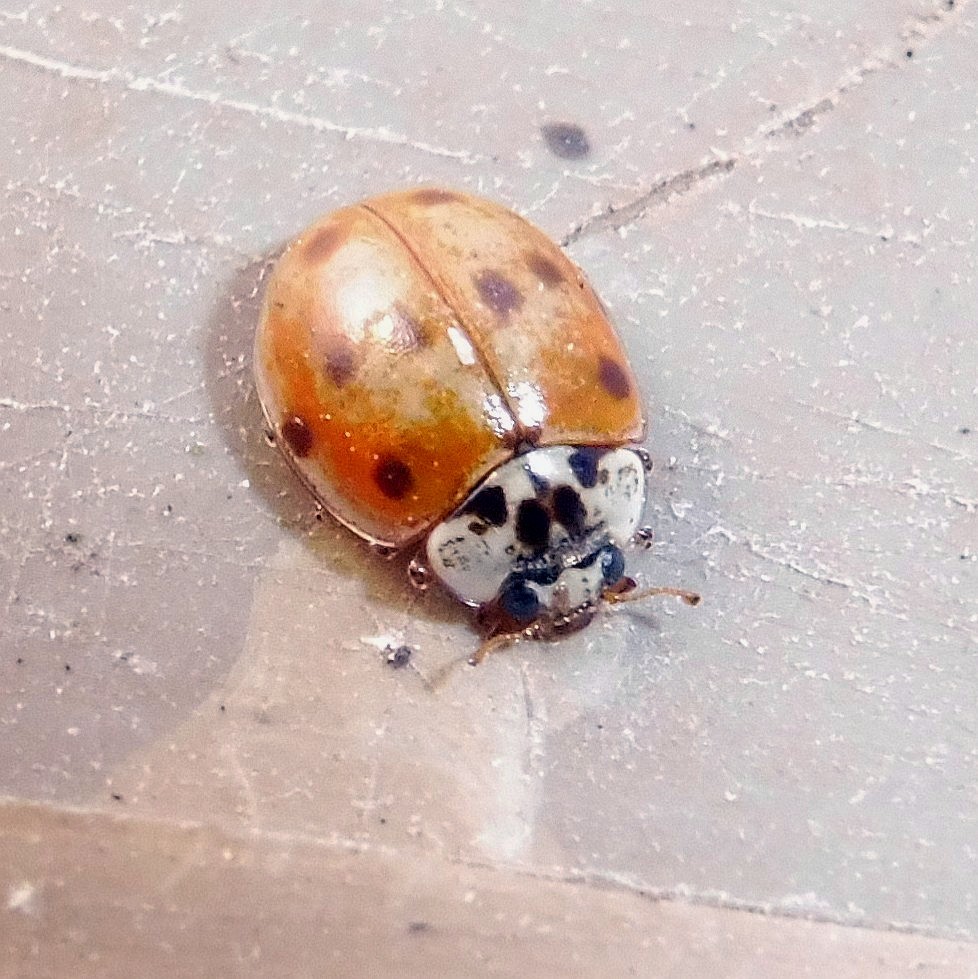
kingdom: Animalia
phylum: Arthropoda
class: Insecta
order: Coleoptera
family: Coccinellidae
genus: Adalia
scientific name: Adalia decempunctata
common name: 10-spot ladybird
